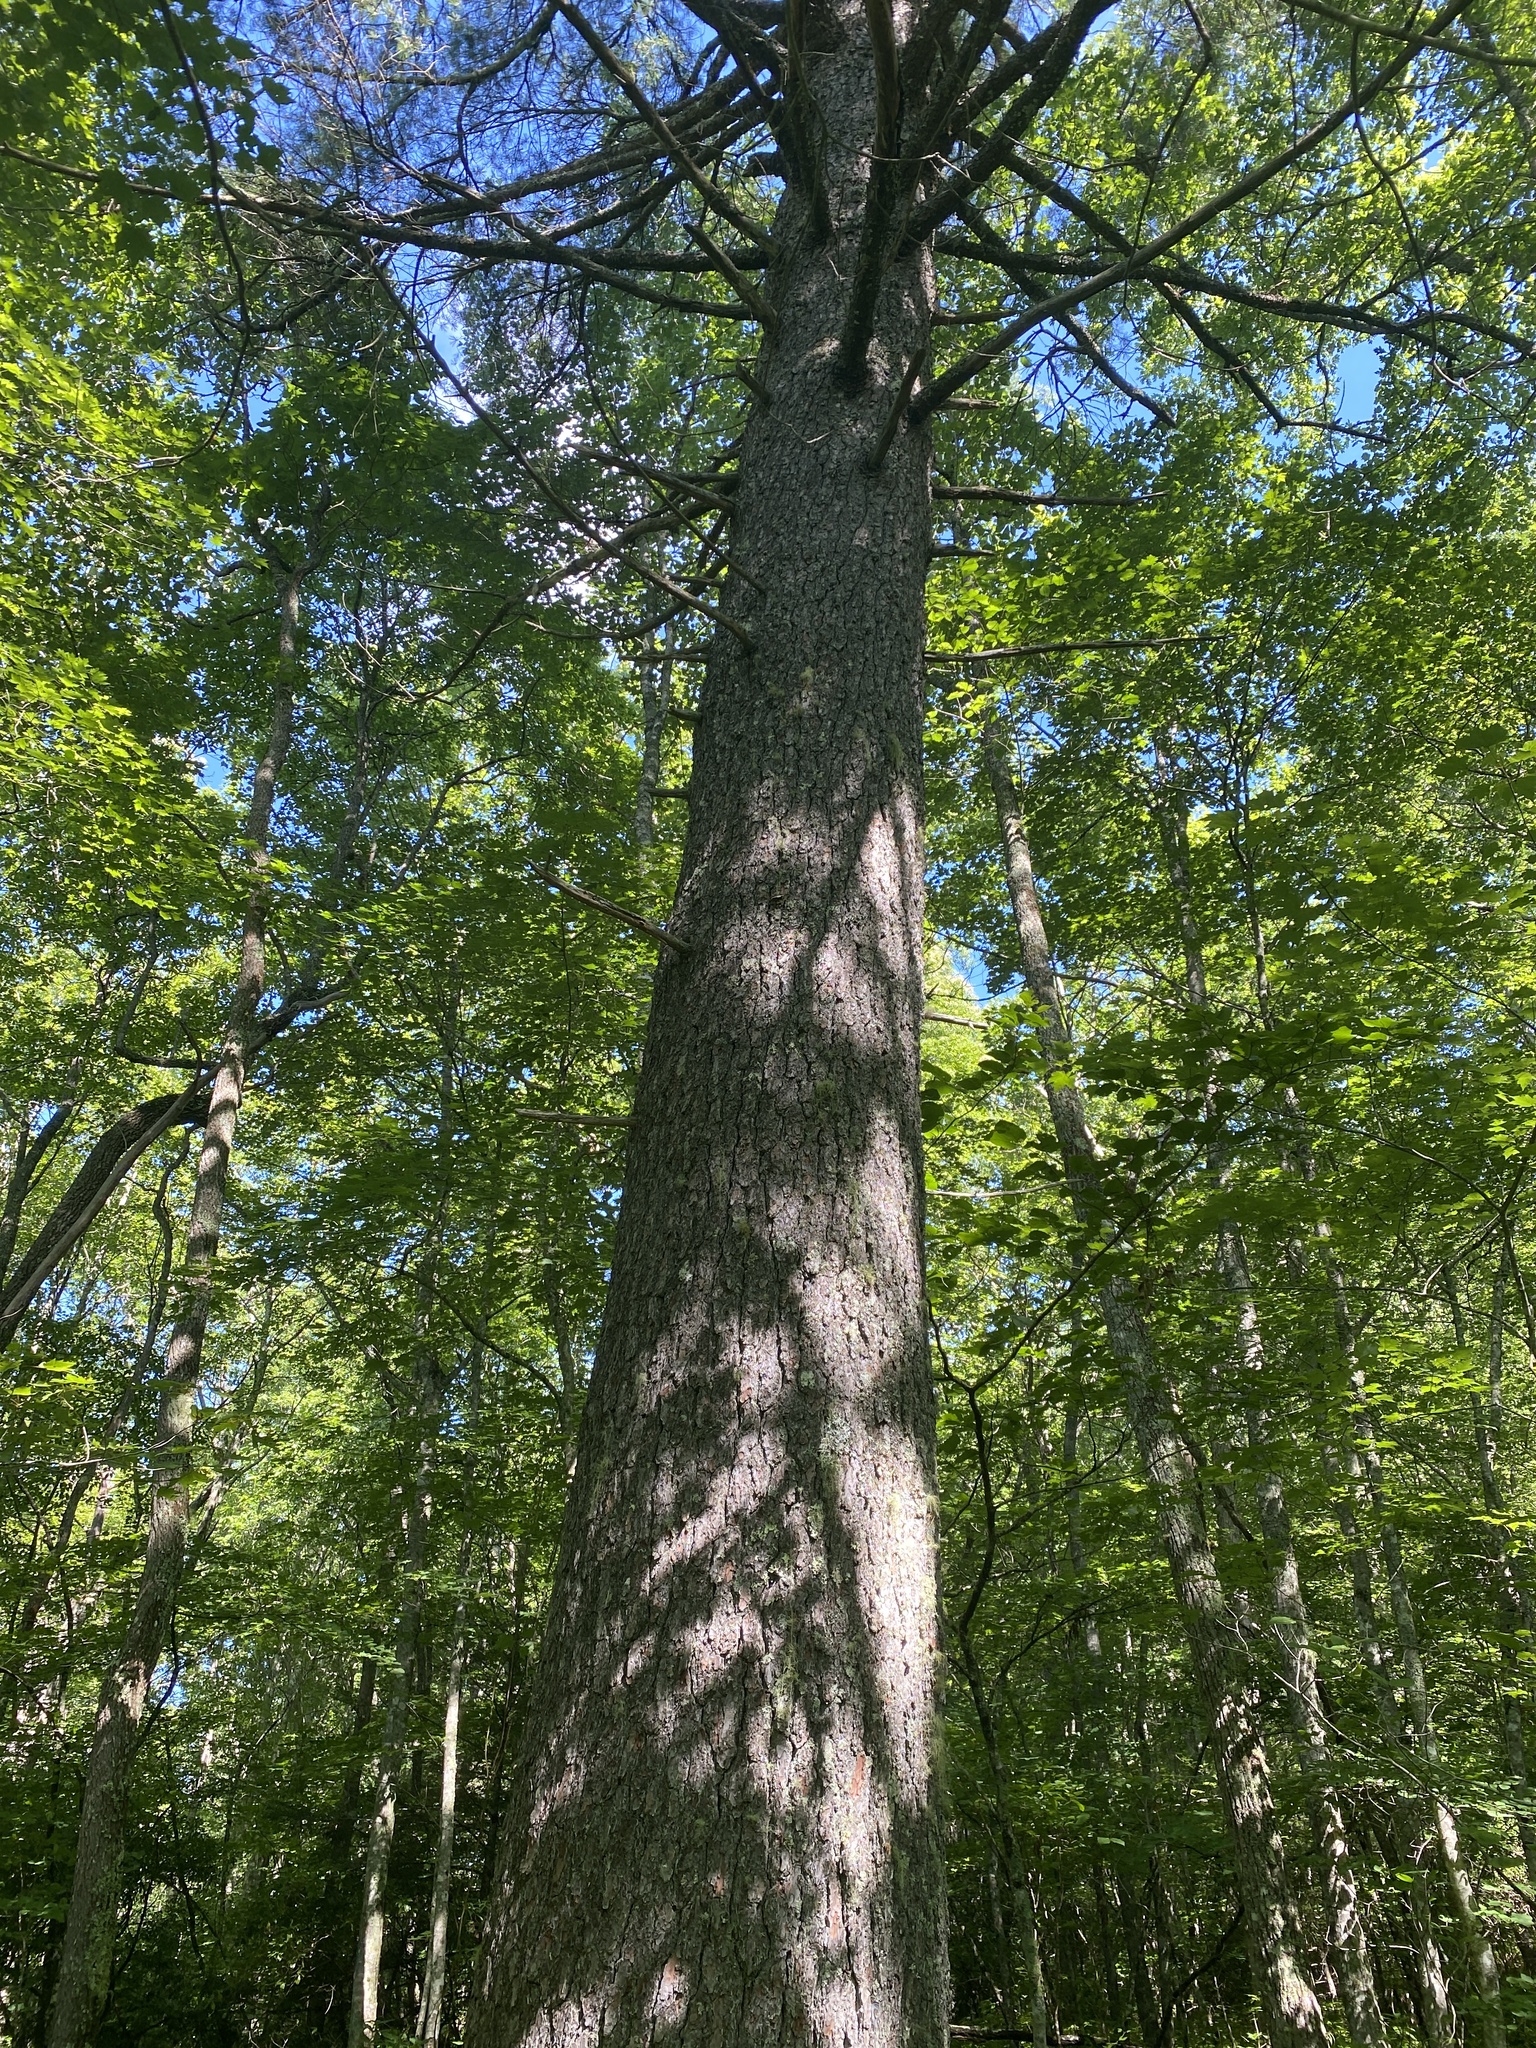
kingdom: Plantae
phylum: Tracheophyta
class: Pinopsida
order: Pinales
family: Pinaceae
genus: Pinus
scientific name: Pinus strobus
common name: Weymouth pine
